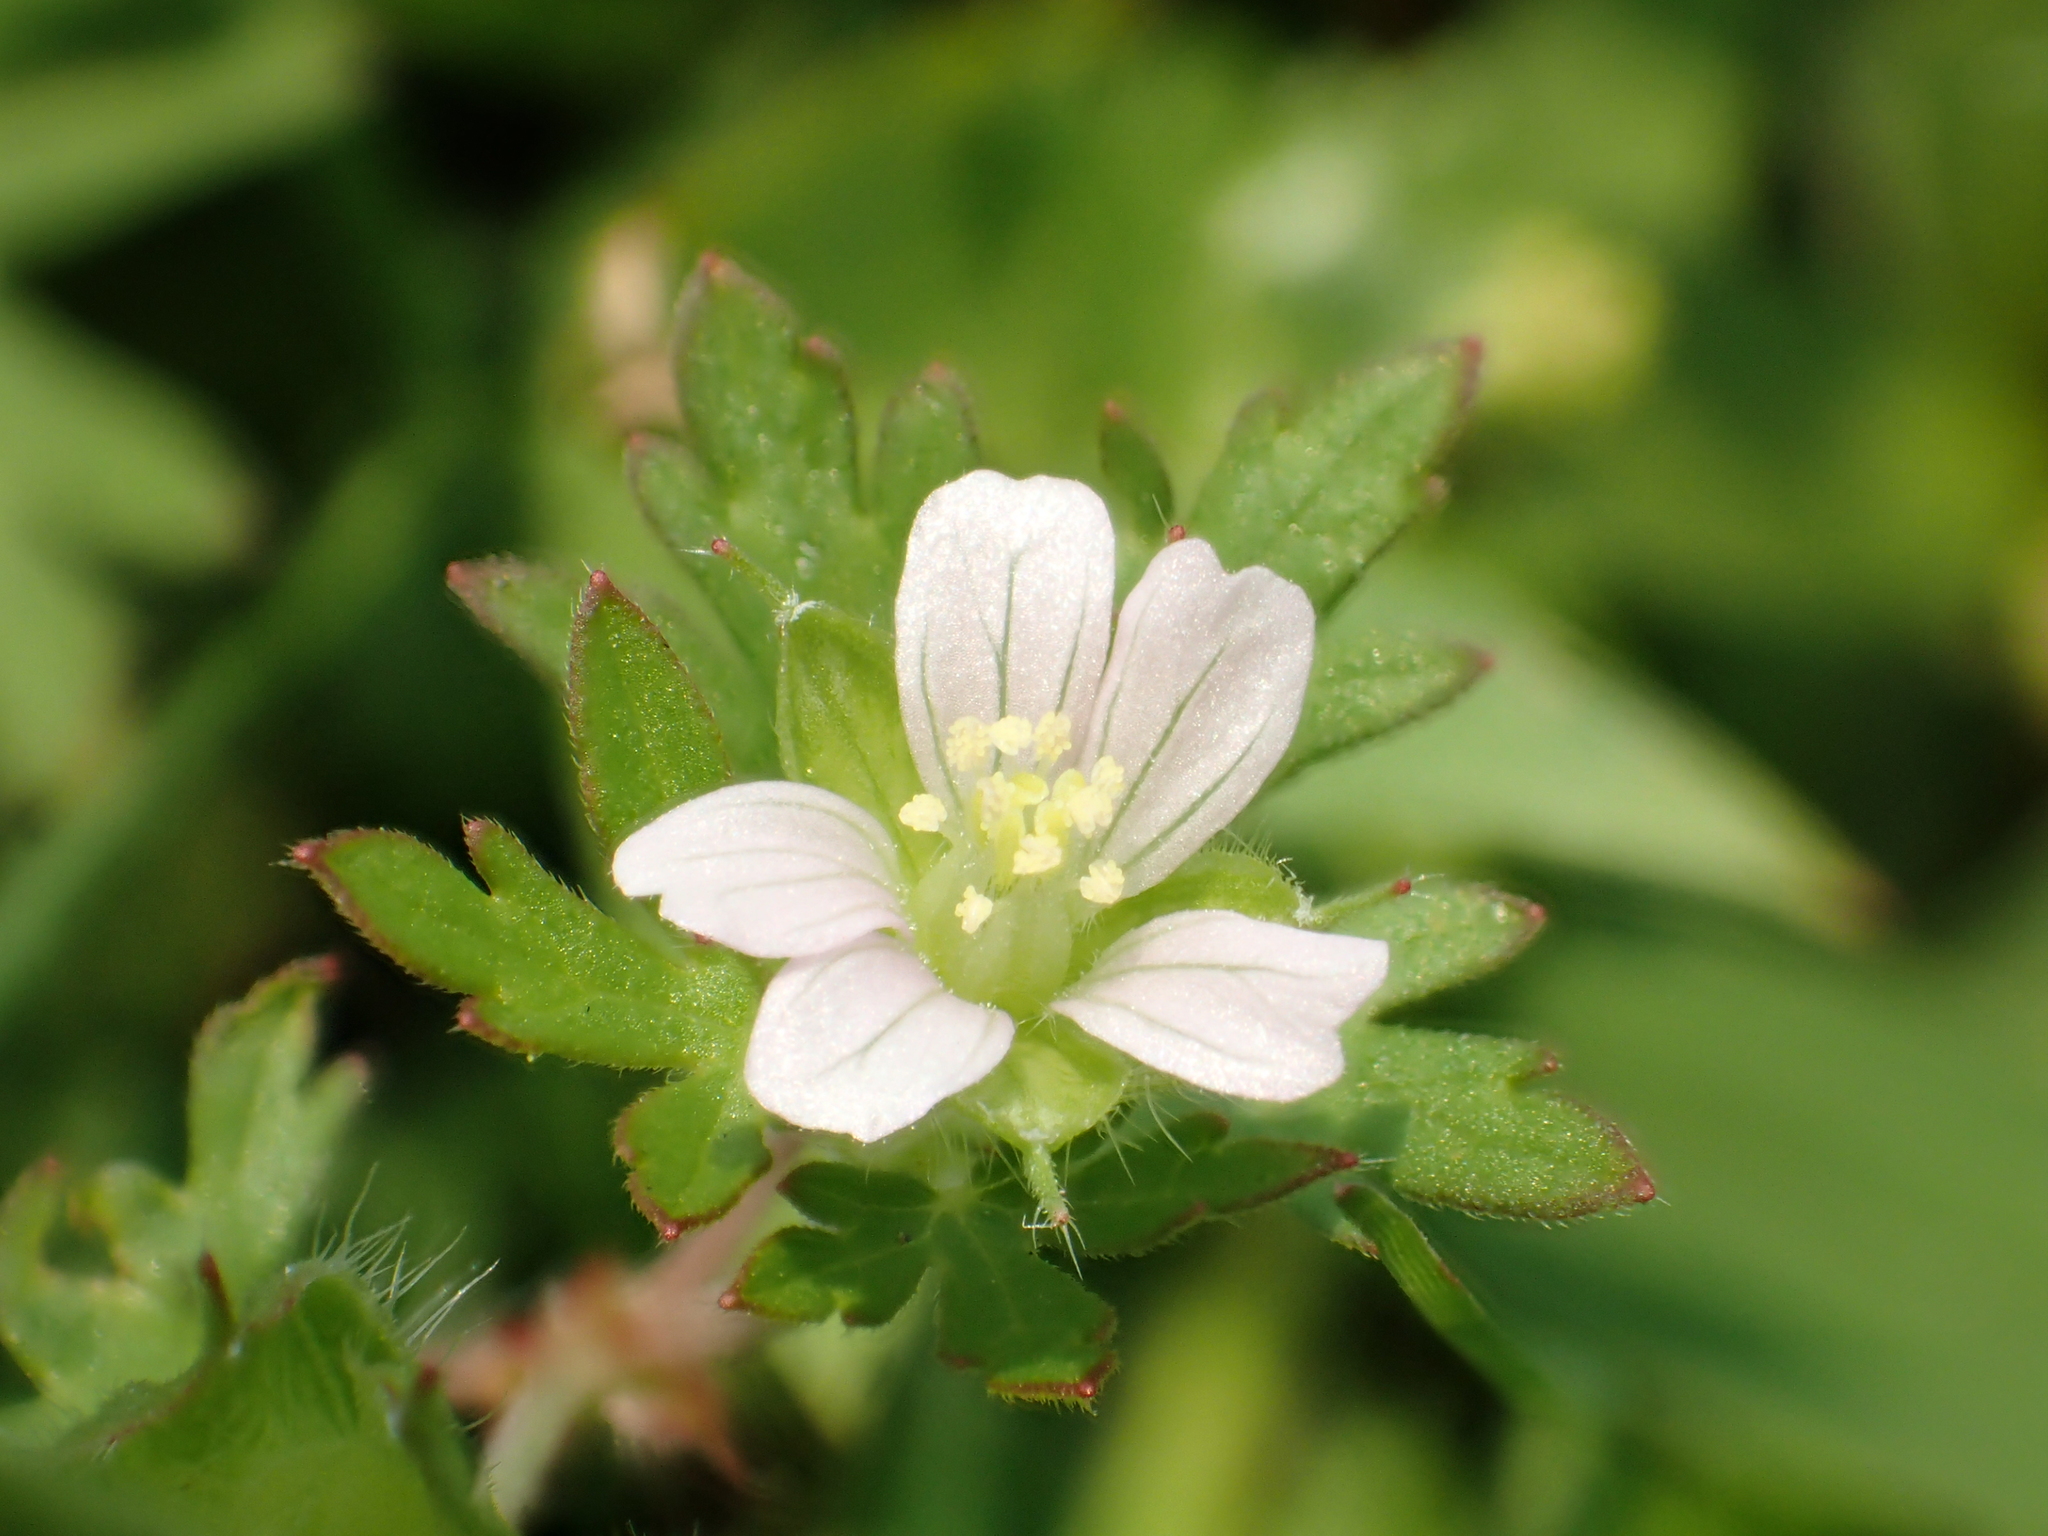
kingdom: Plantae
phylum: Tracheophyta
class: Magnoliopsida
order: Geraniales
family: Geraniaceae
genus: Geranium
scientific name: Geranium carolinianum
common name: Carolina crane's-bill
